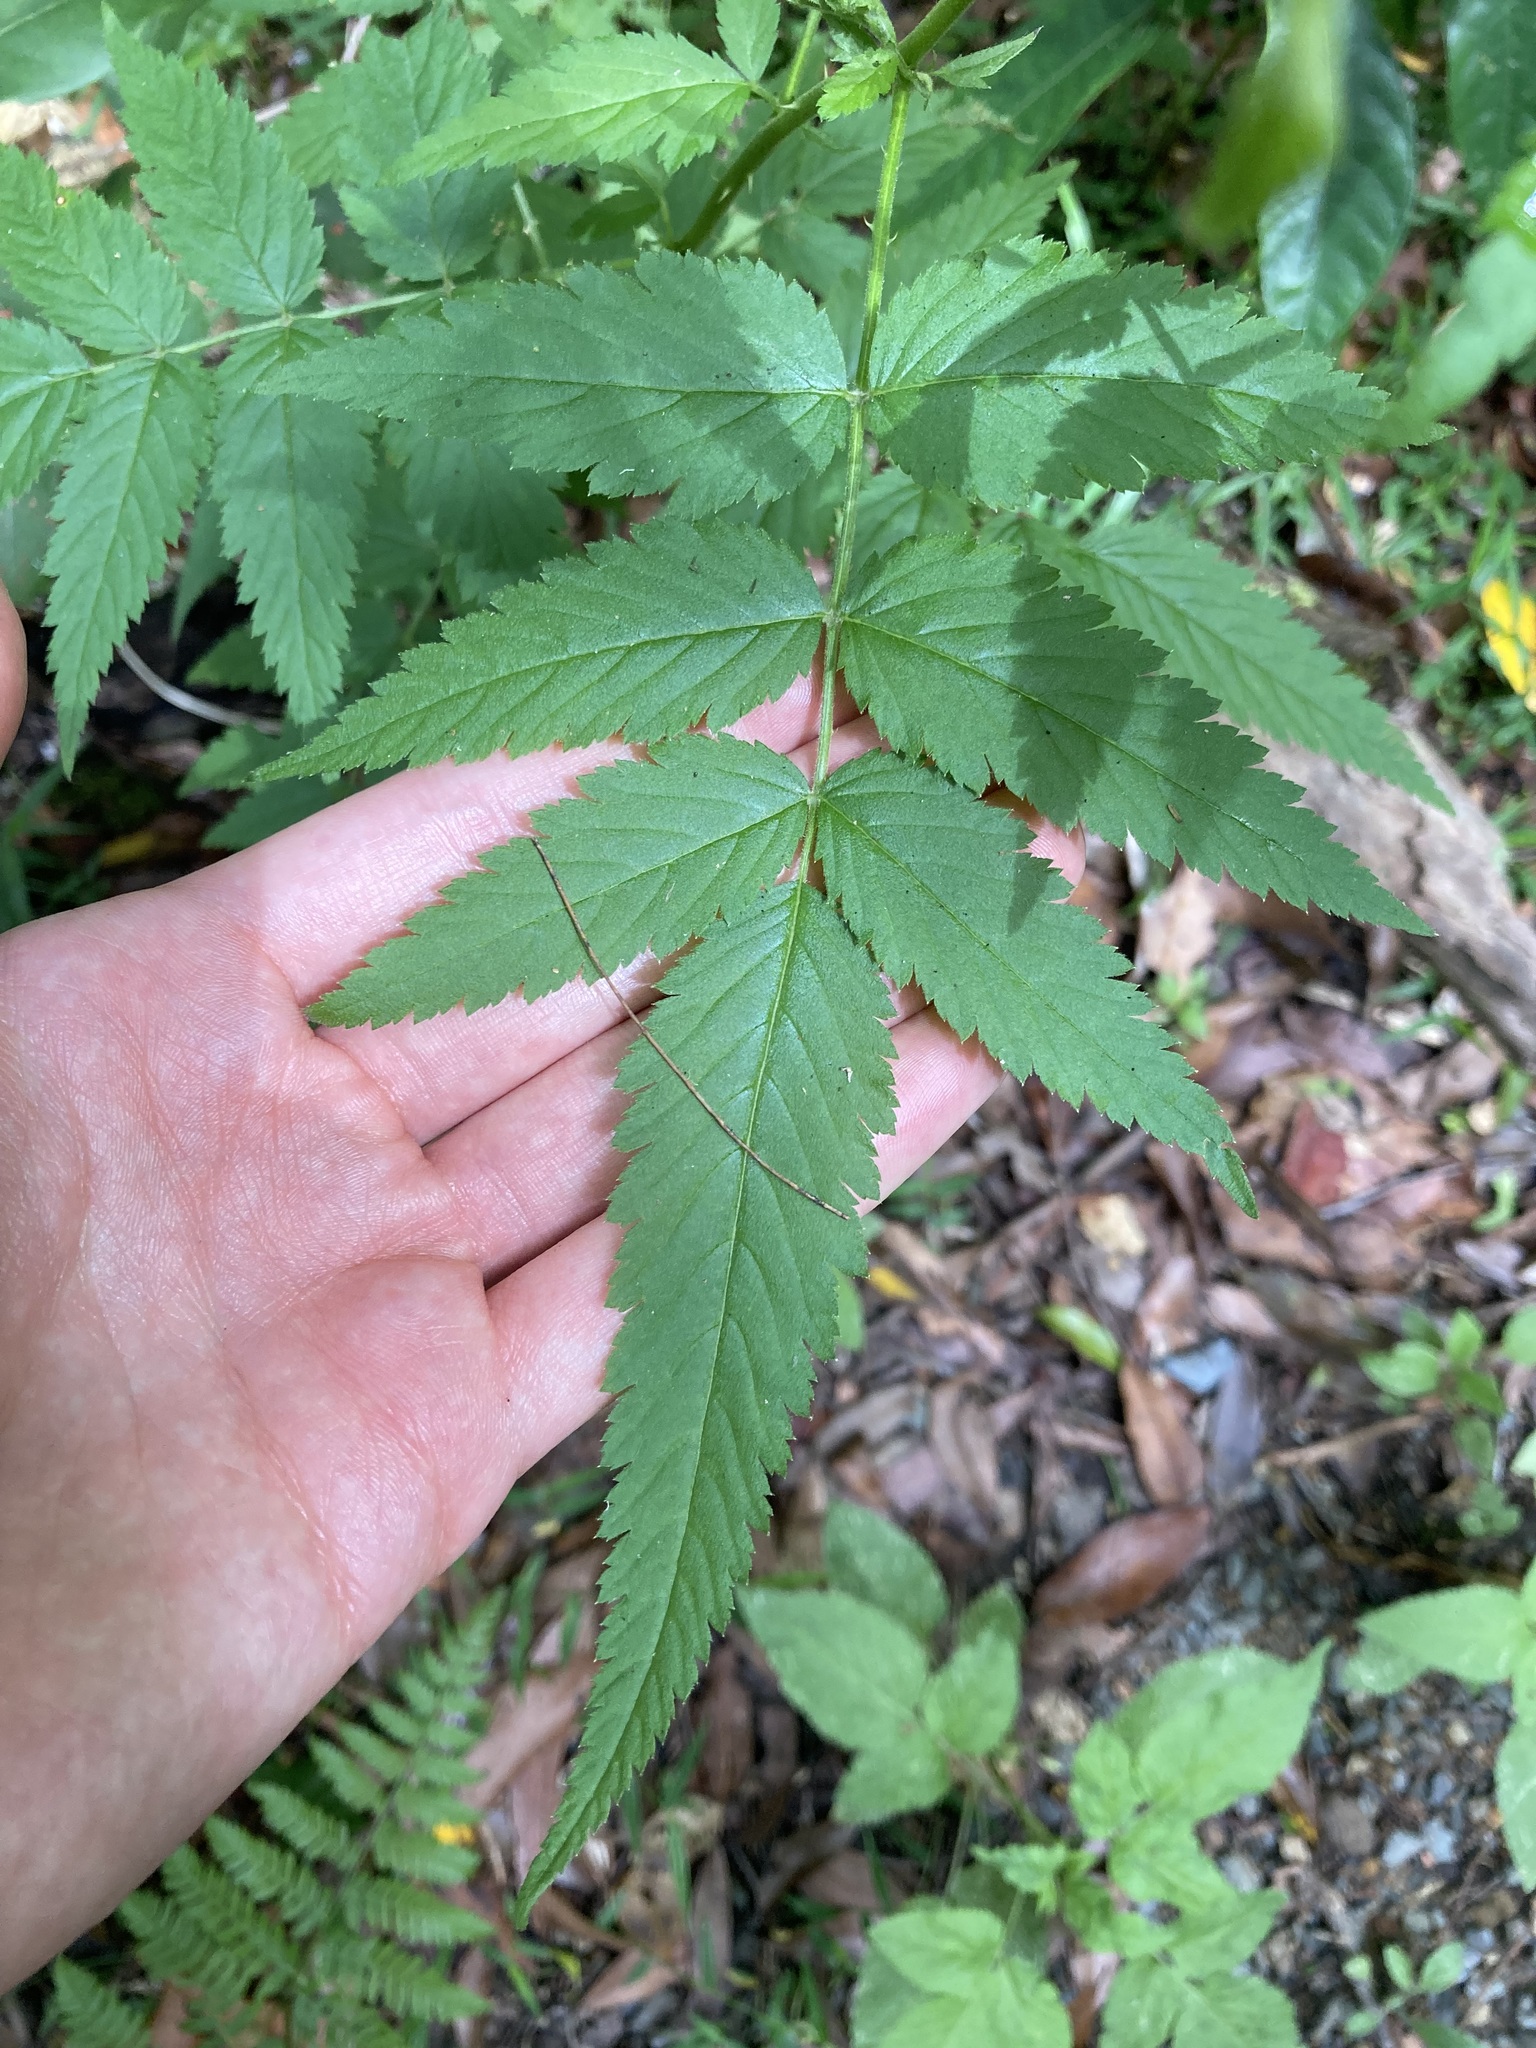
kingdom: Plantae
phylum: Tracheophyta
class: Magnoliopsida
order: Rosales
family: Rosaceae
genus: Rubus
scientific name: Rubus rosifolius
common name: Roseleaf raspberry
